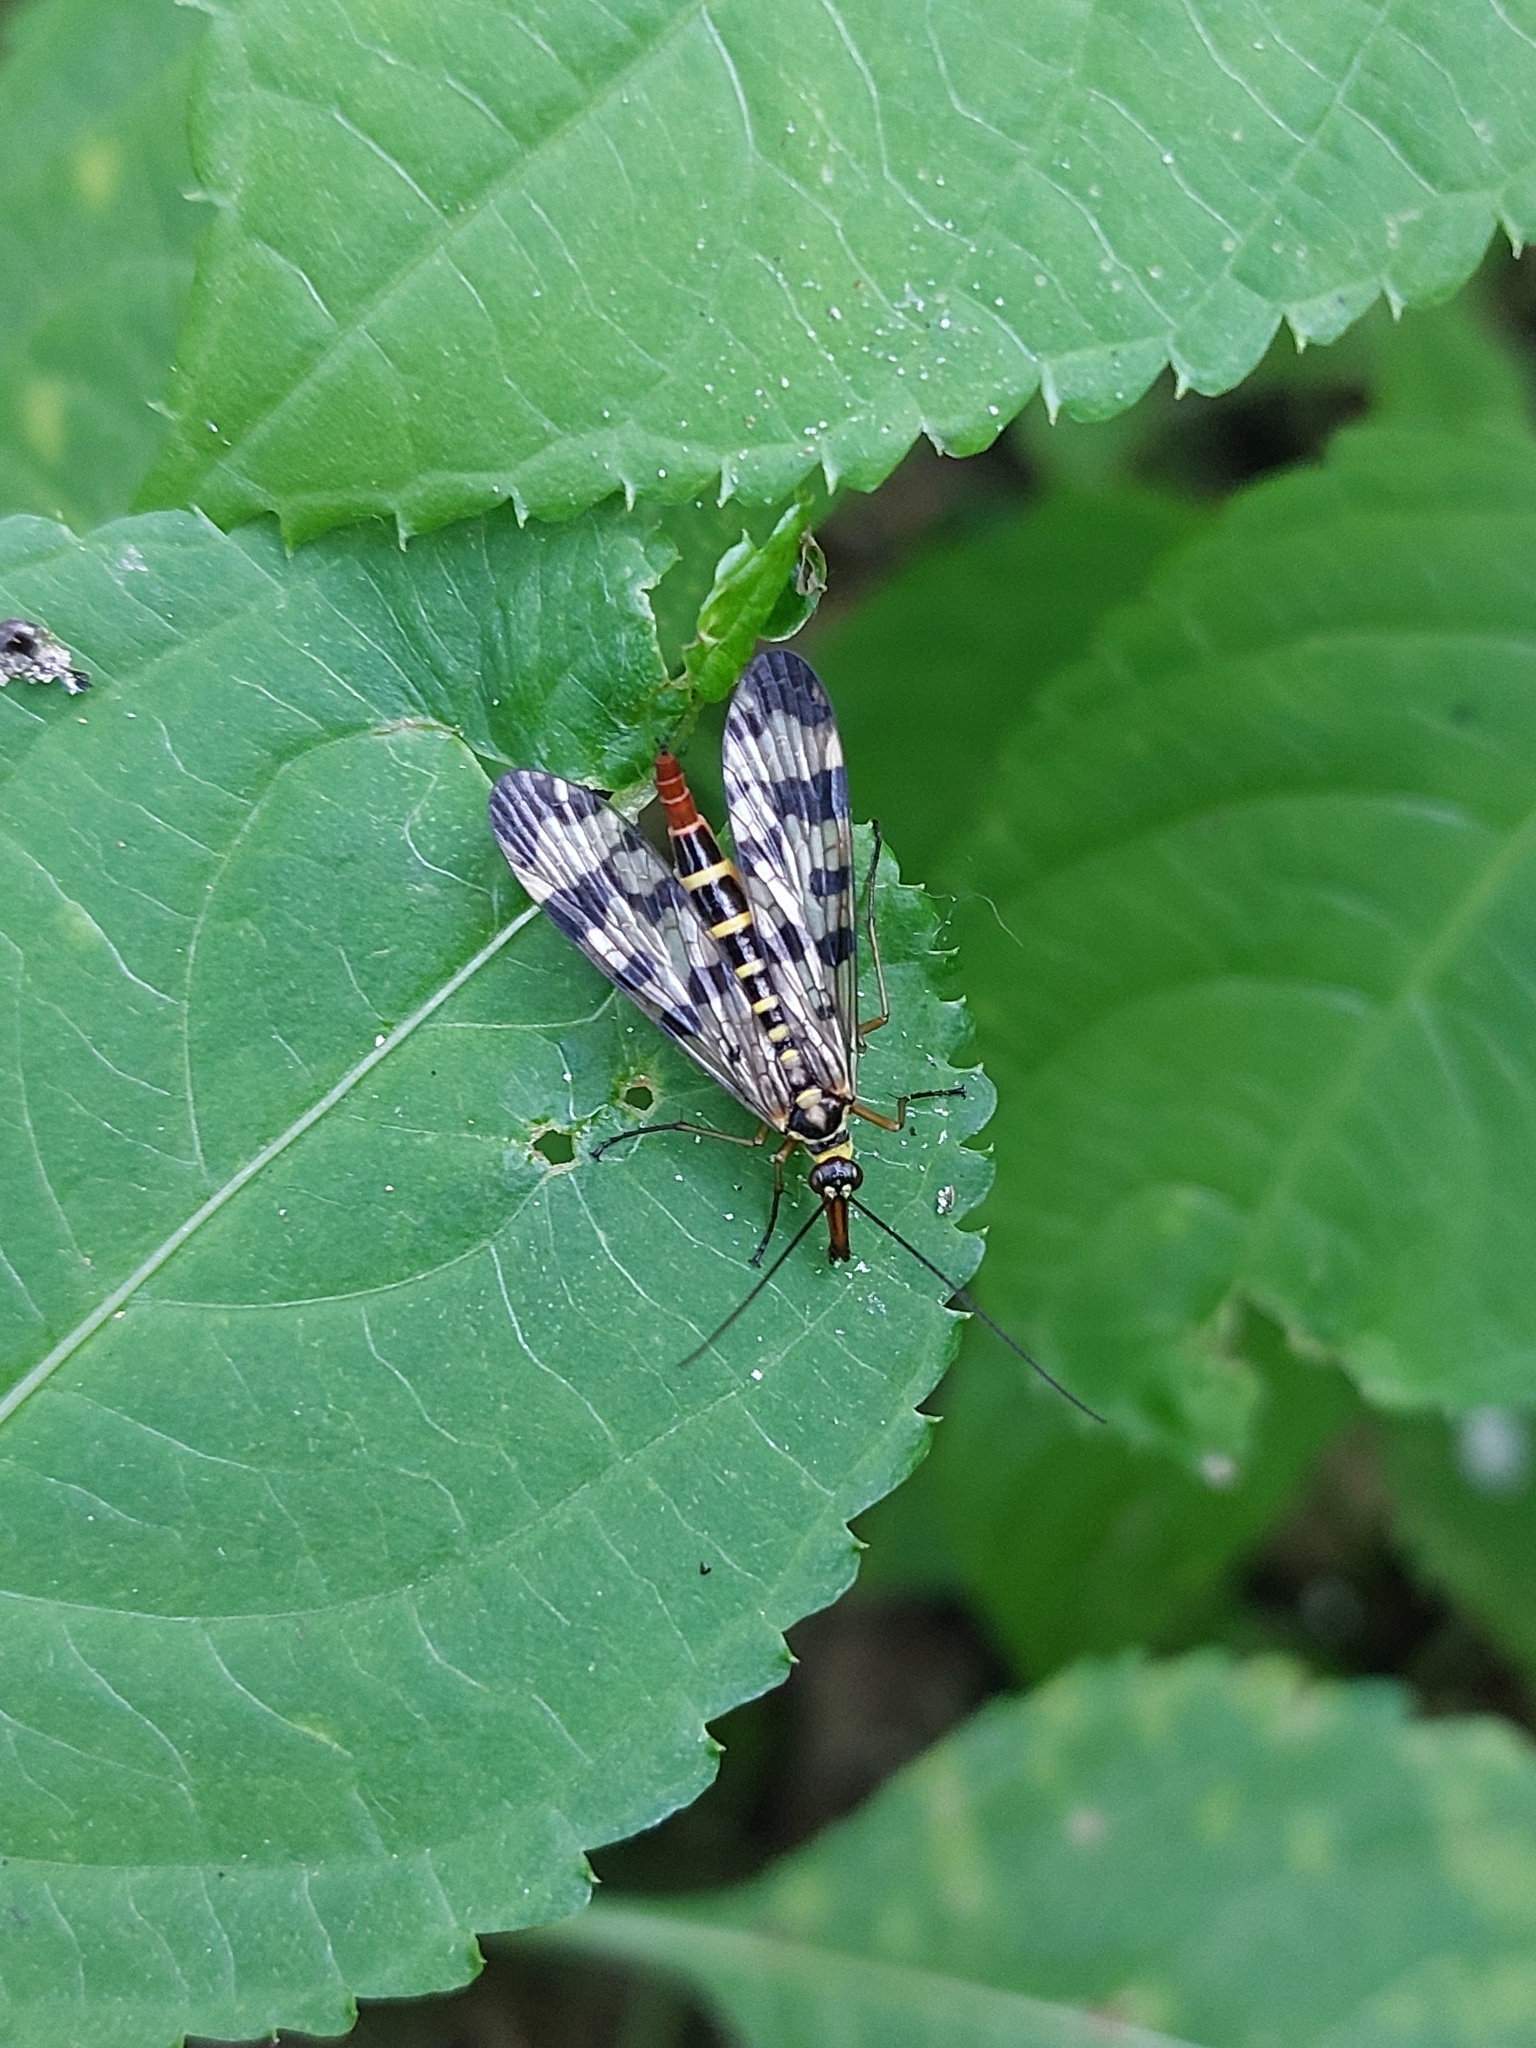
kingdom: Animalia
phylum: Arthropoda
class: Insecta
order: Mecoptera
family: Panorpidae
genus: Panorpa
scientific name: Panorpa communis
